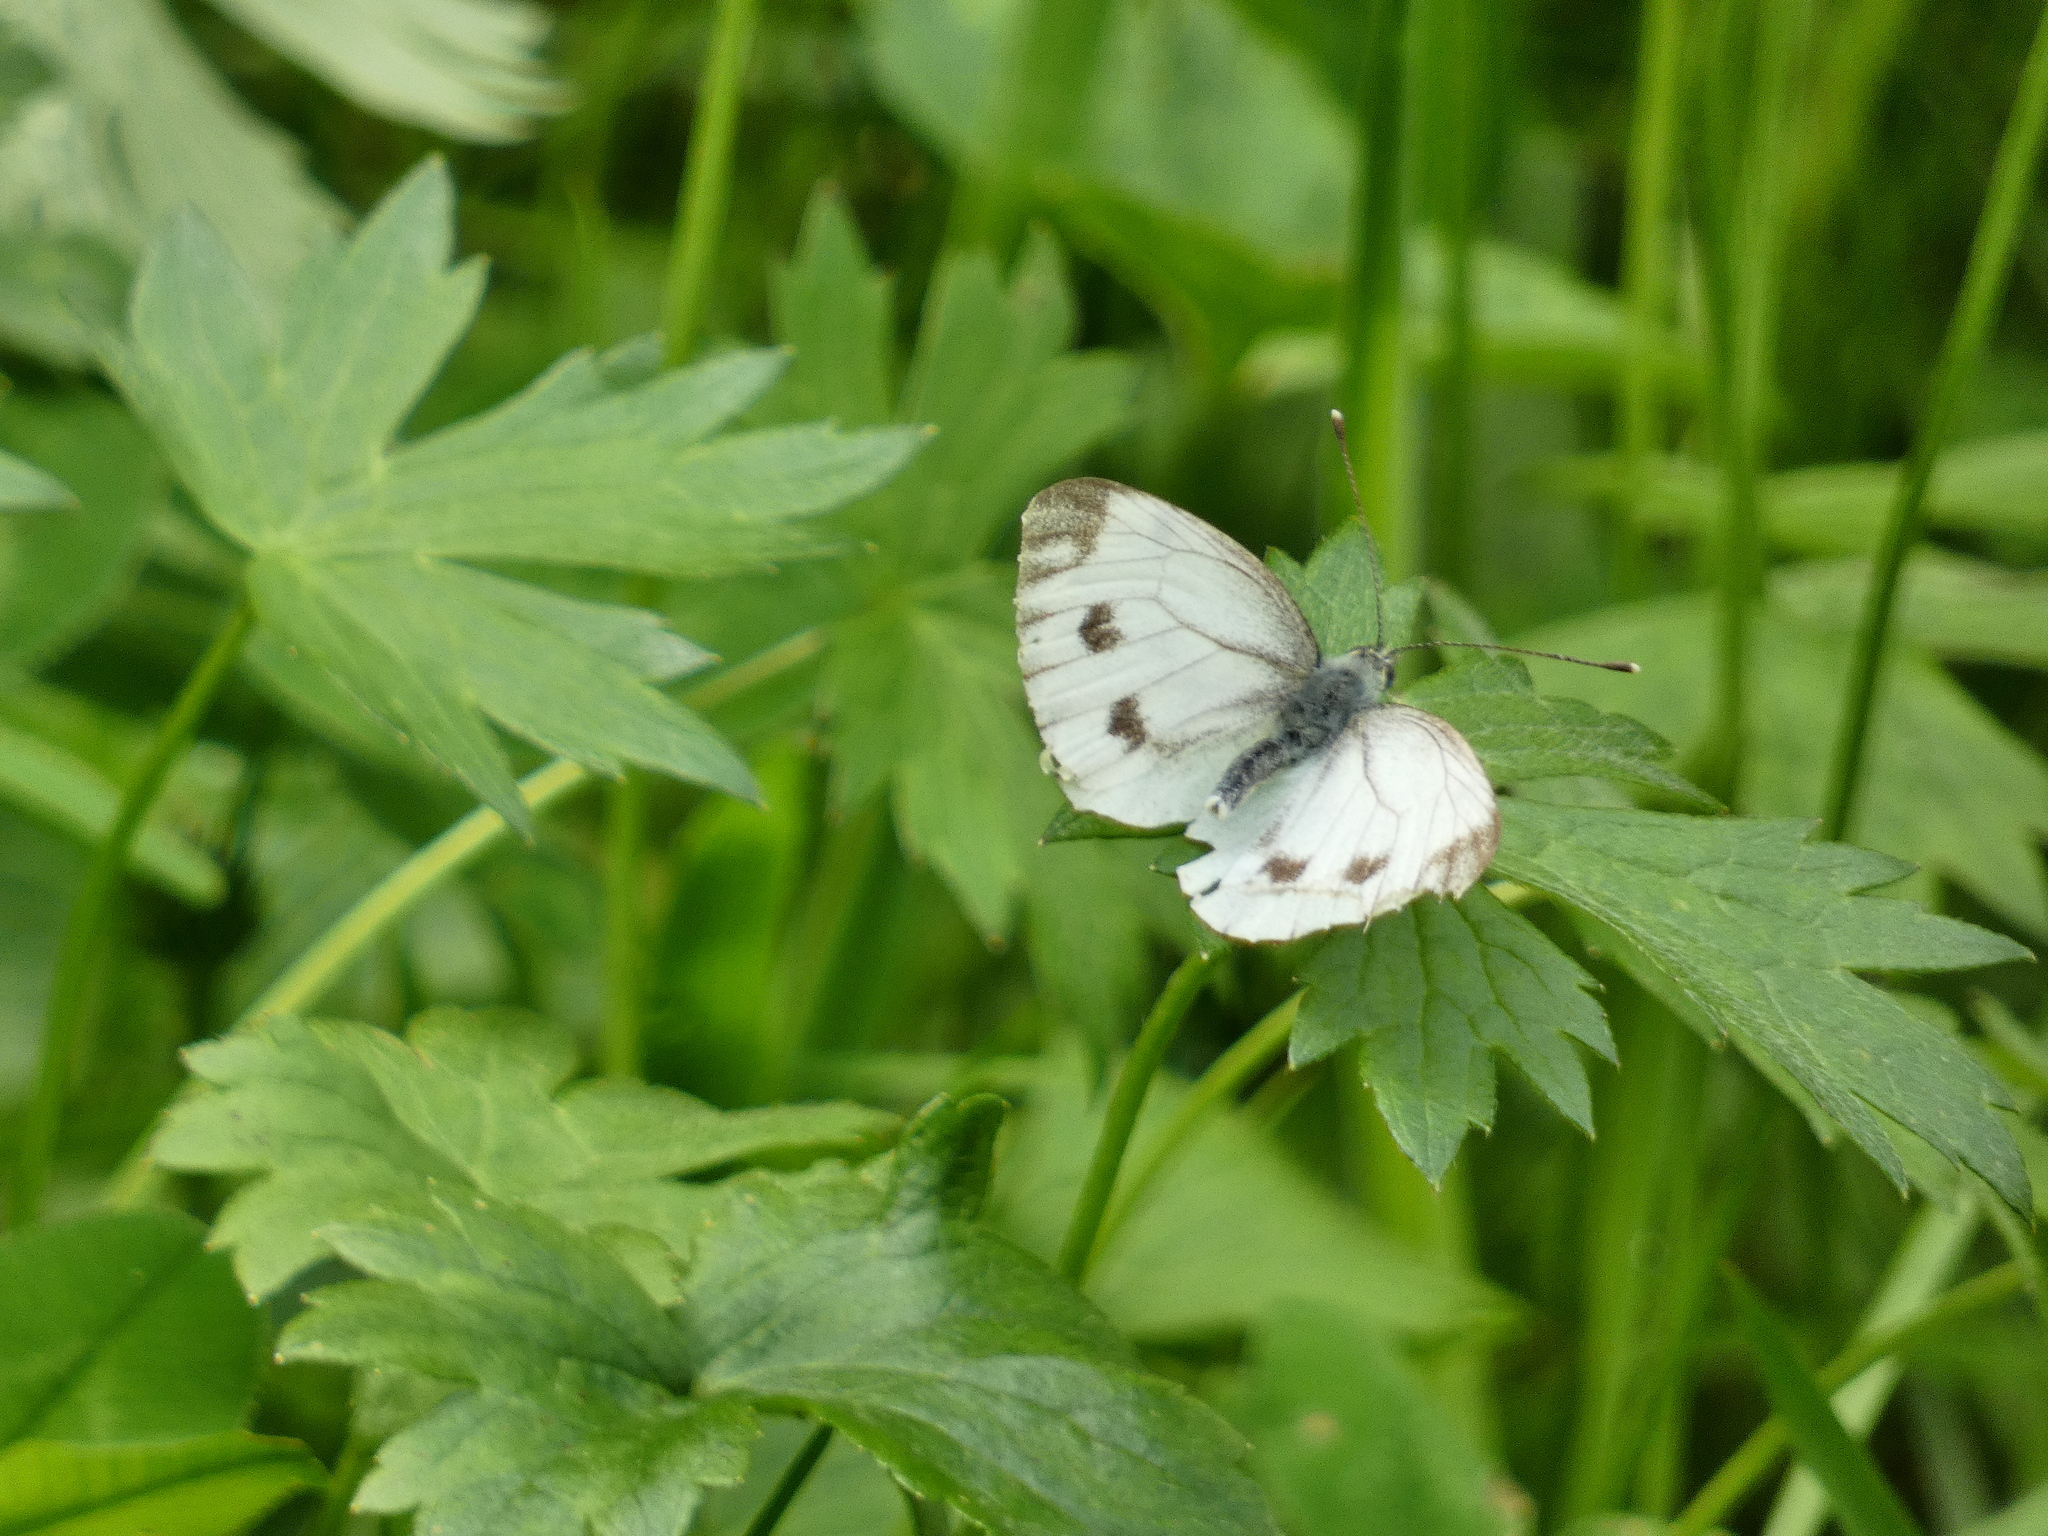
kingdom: Animalia
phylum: Arthropoda
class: Insecta
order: Lepidoptera
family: Pieridae
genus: Pieris
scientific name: Pieris napi
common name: Green-veined white
